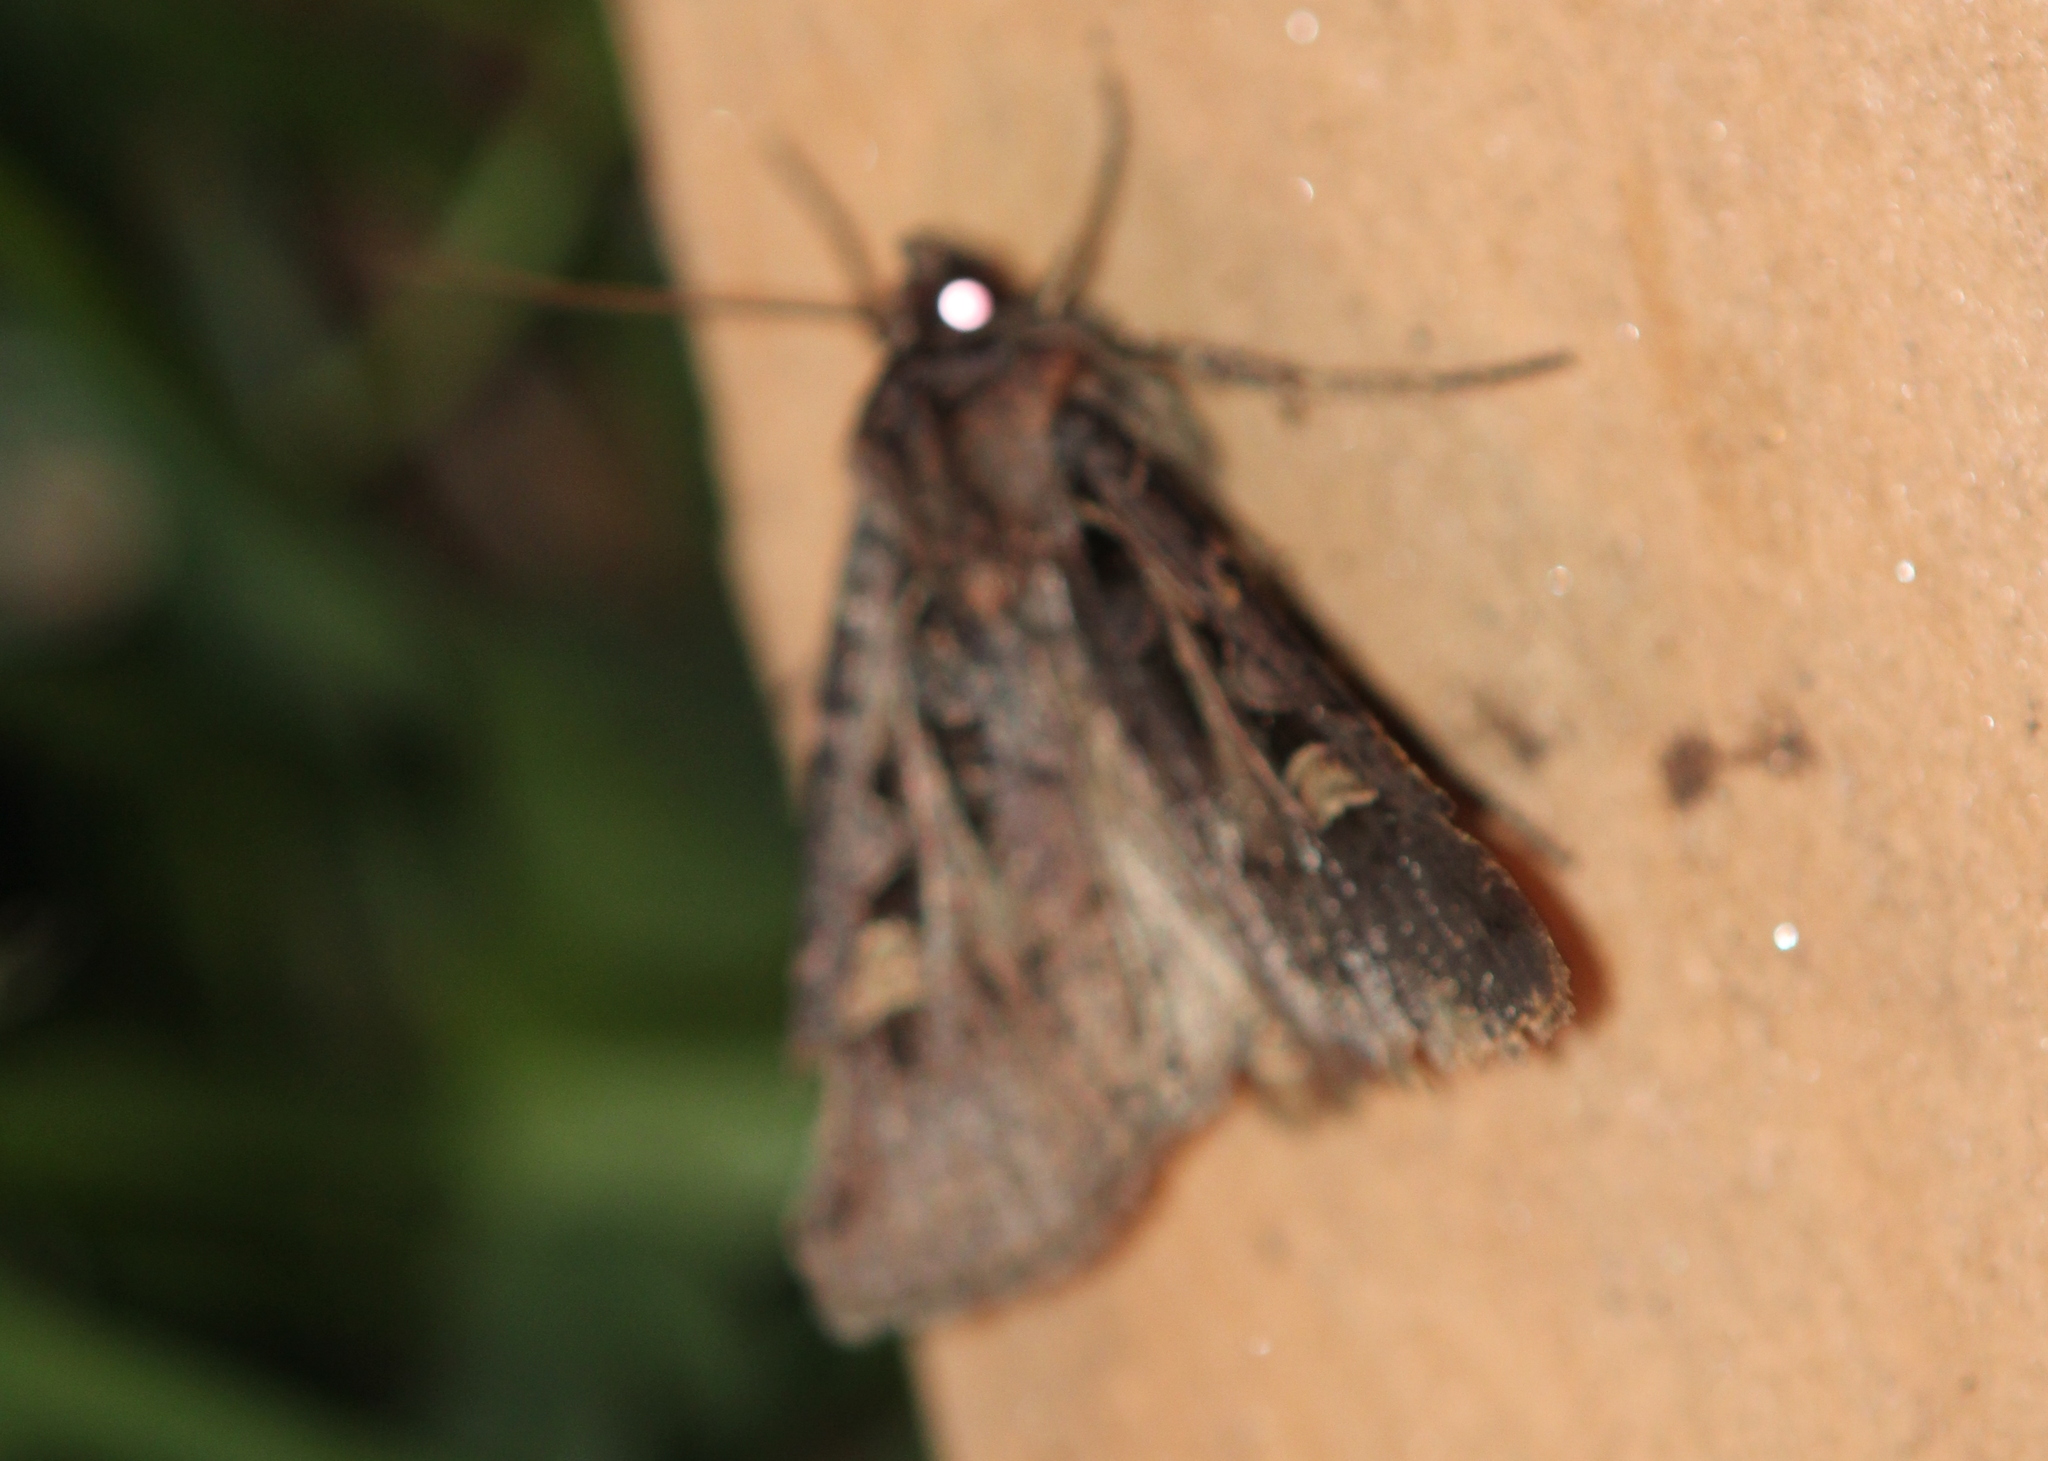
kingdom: Animalia
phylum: Arthropoda
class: Insecta
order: Lepidoptera
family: Noctuidae
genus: Feltia
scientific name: Feltia herilis
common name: Master's dart
